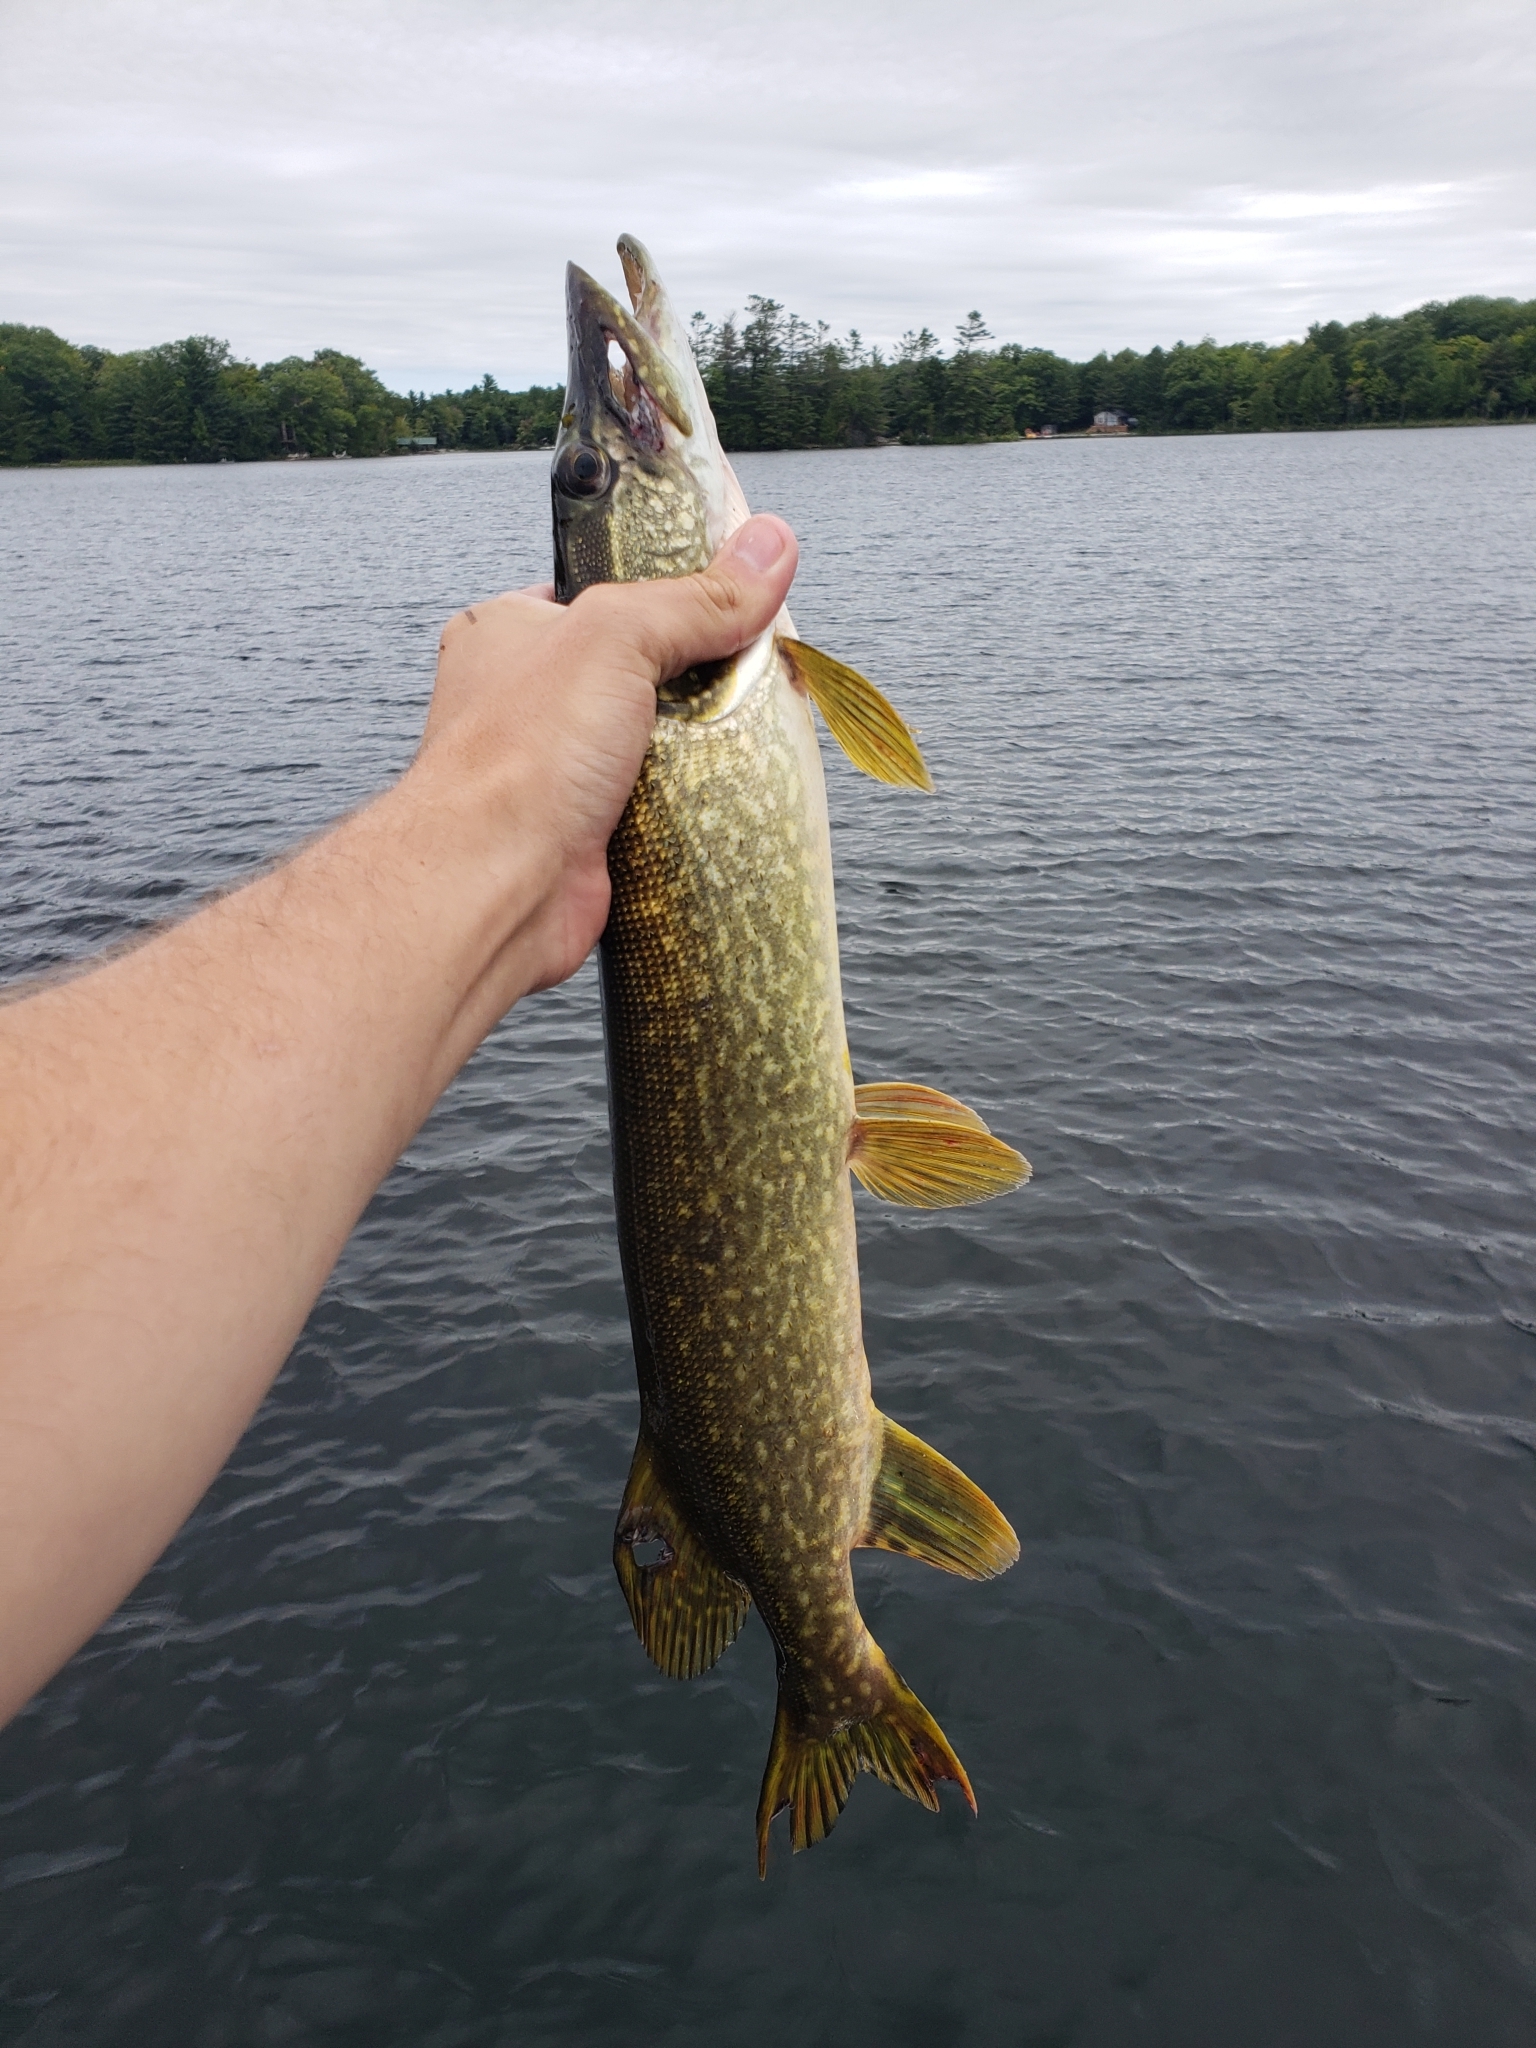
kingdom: Animalia
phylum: Chordata
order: Esociformes
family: Esocidae
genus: Esox
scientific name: Esox lucius
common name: Northern pike
